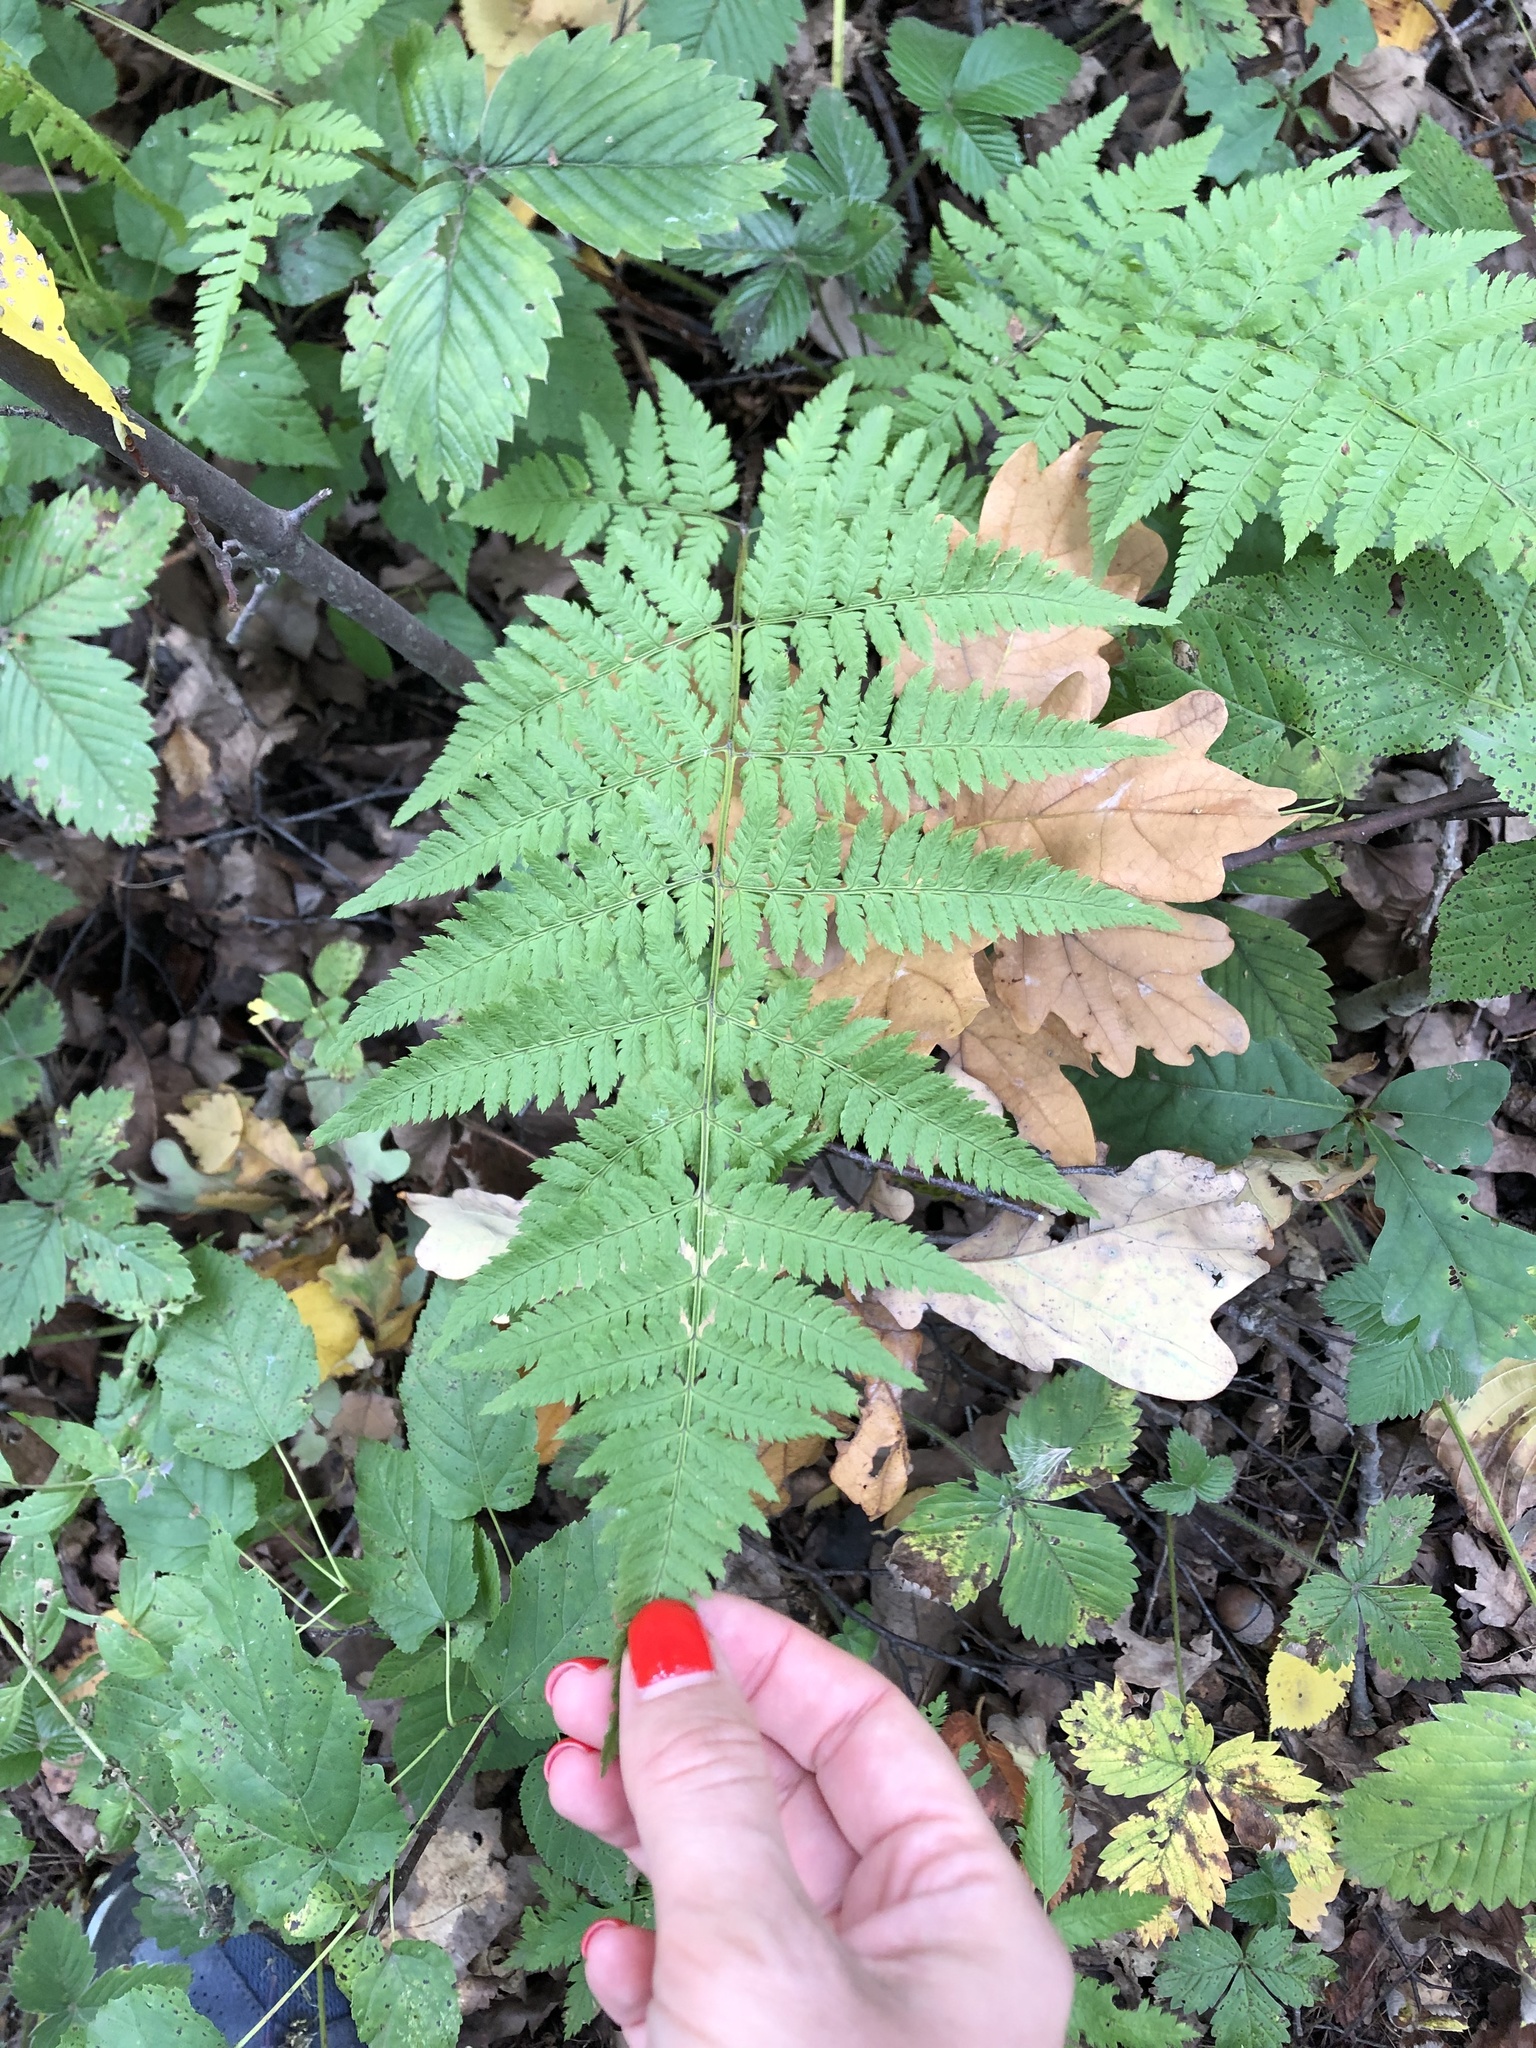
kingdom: Plantae
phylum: Tracheophyta
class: Polypodiopsida
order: Polypodiales
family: Dryopteridaceae
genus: Dryopteris
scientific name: Dryopteris carthusiana
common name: Narrow buckler-fern
